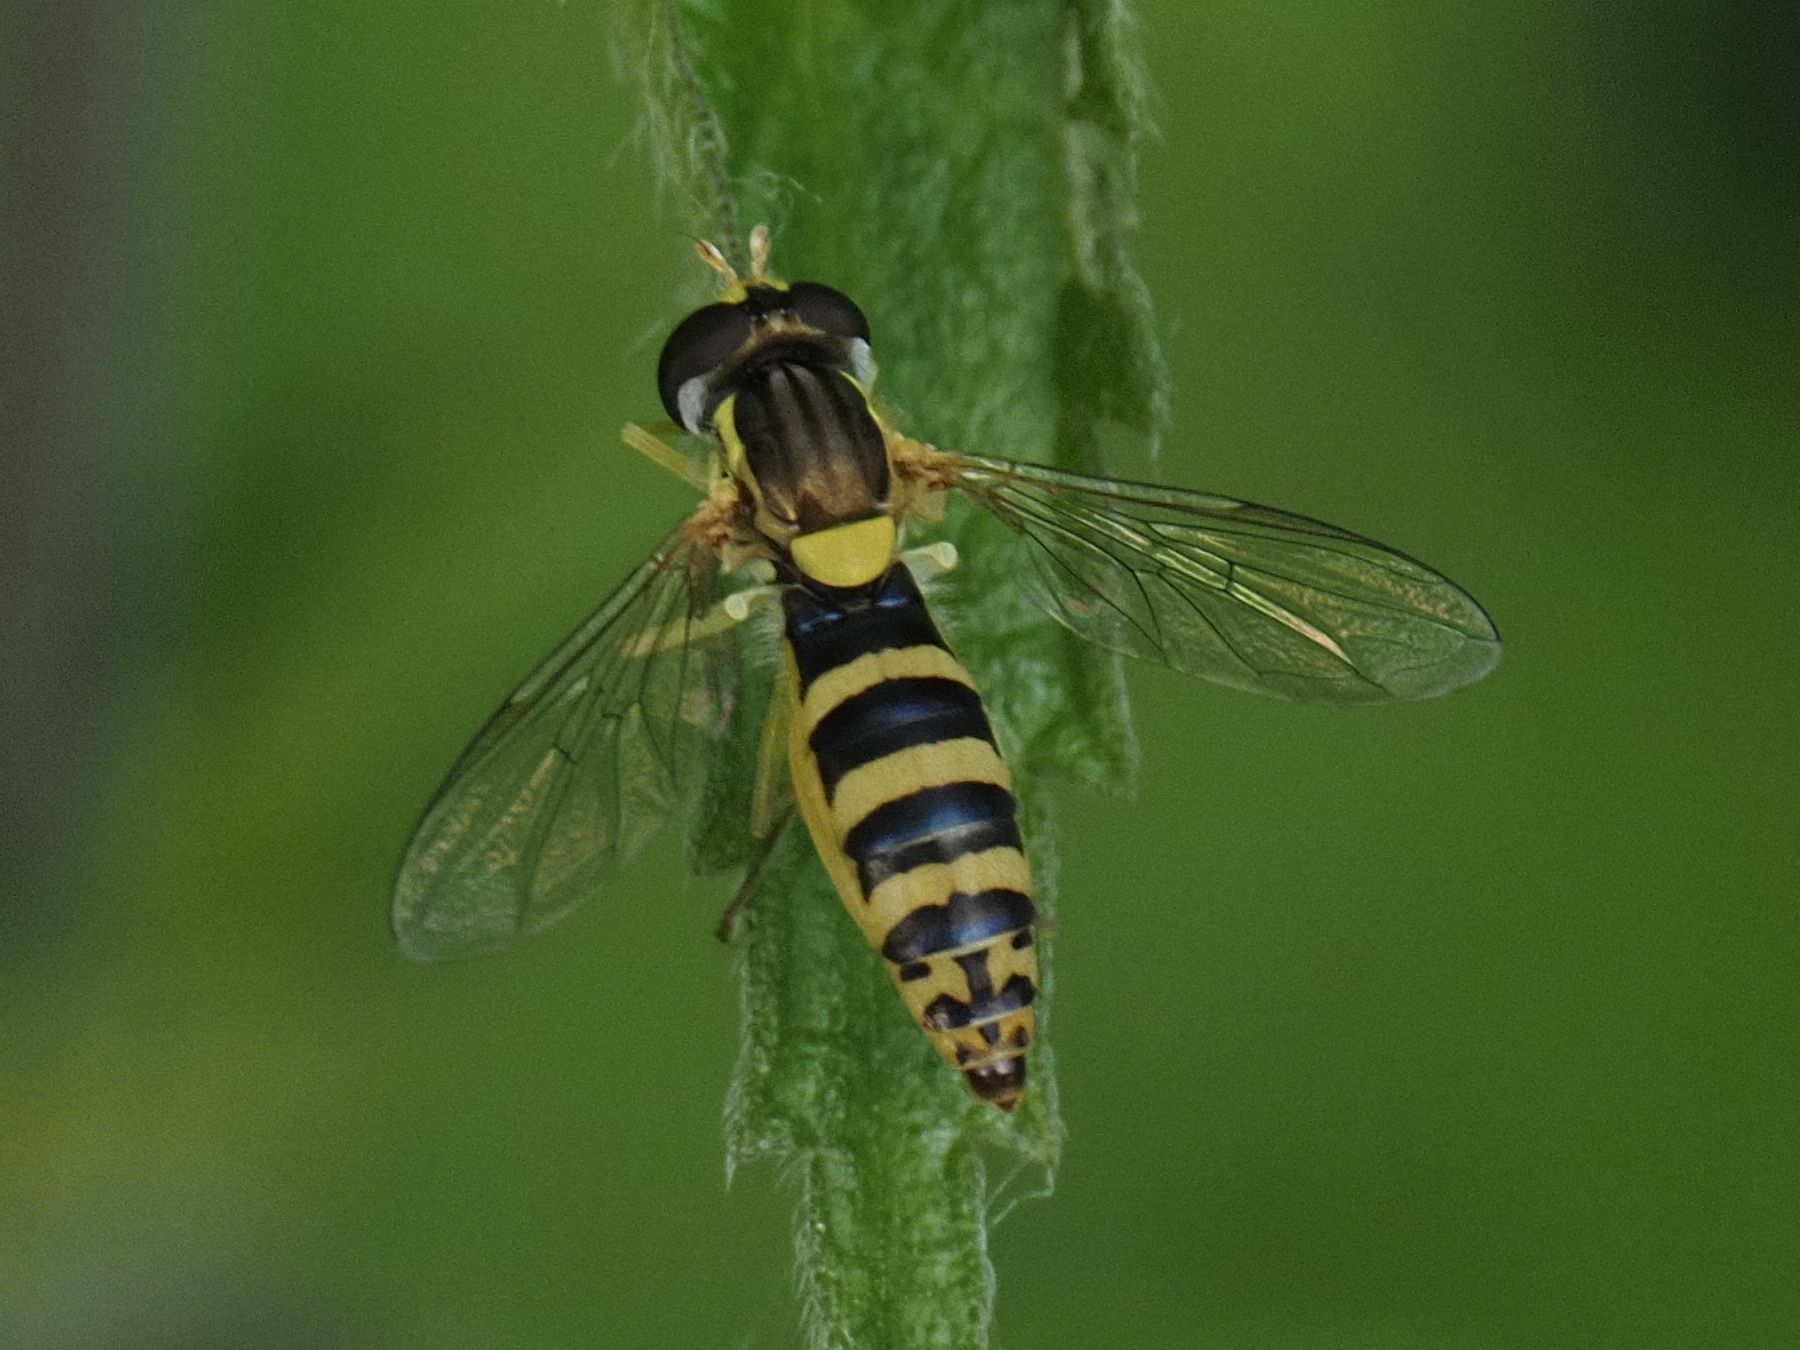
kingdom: Animalia
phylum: Arthropoda
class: Insecta
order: Diptera
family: Syrphidae
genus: Sphaerophoria
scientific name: Sphaerophoria
